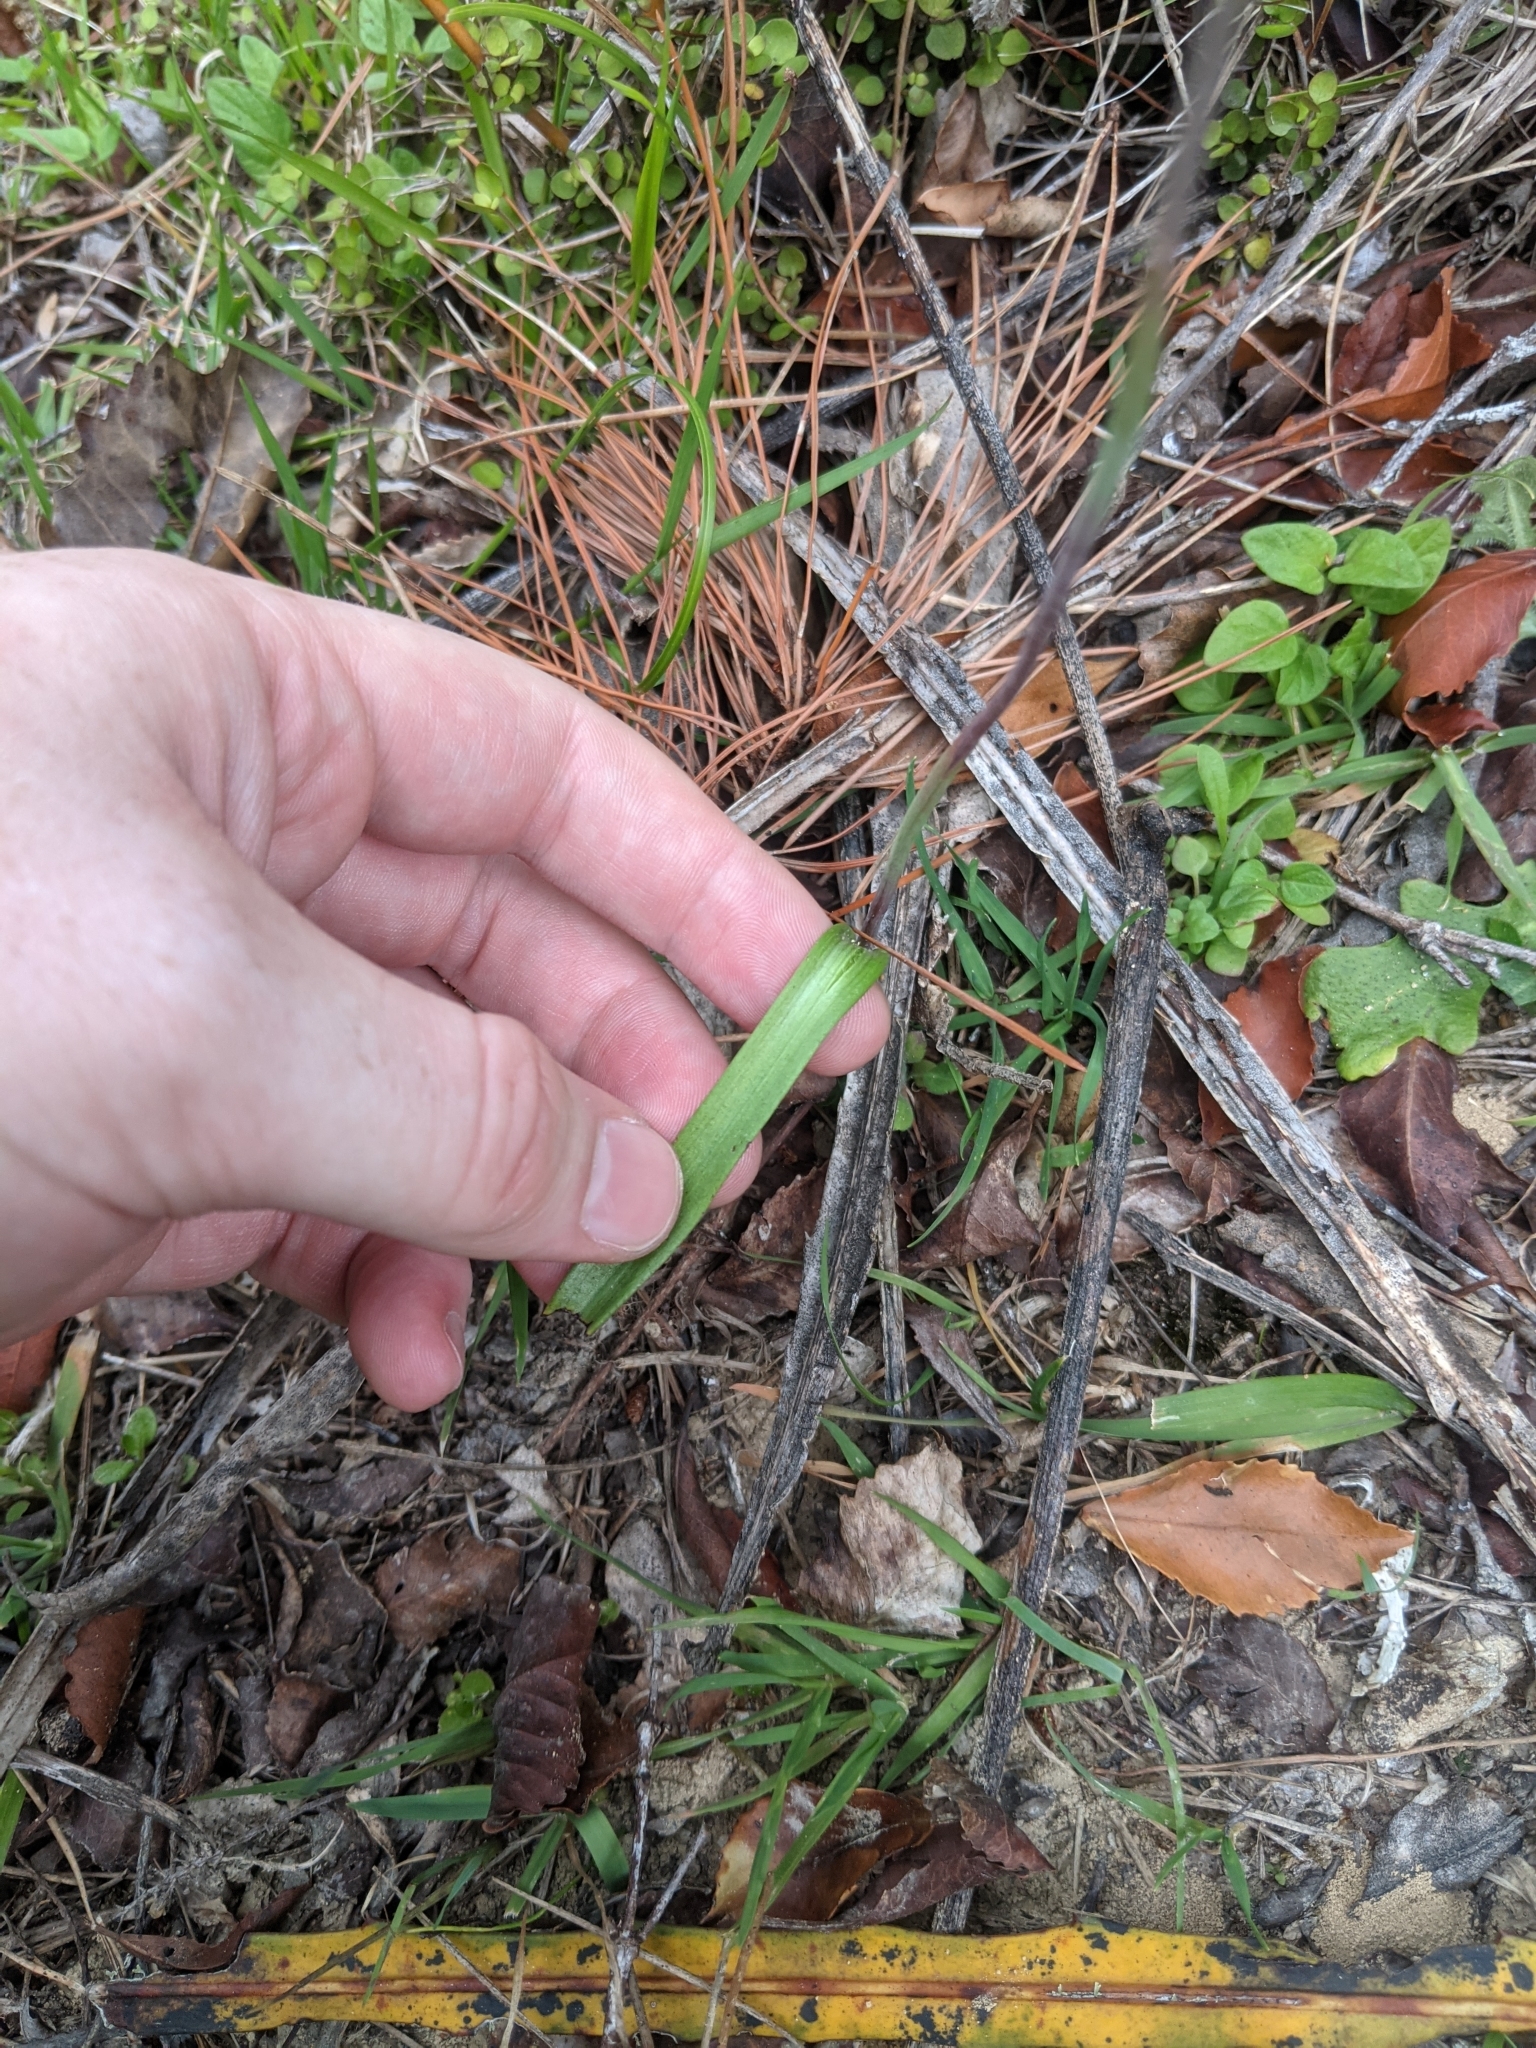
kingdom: Plantae
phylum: Tracheophyta
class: Liliopsida
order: Asparagales
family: Orchidaceae
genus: Thelymitra
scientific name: Thelymitra pauciflora
